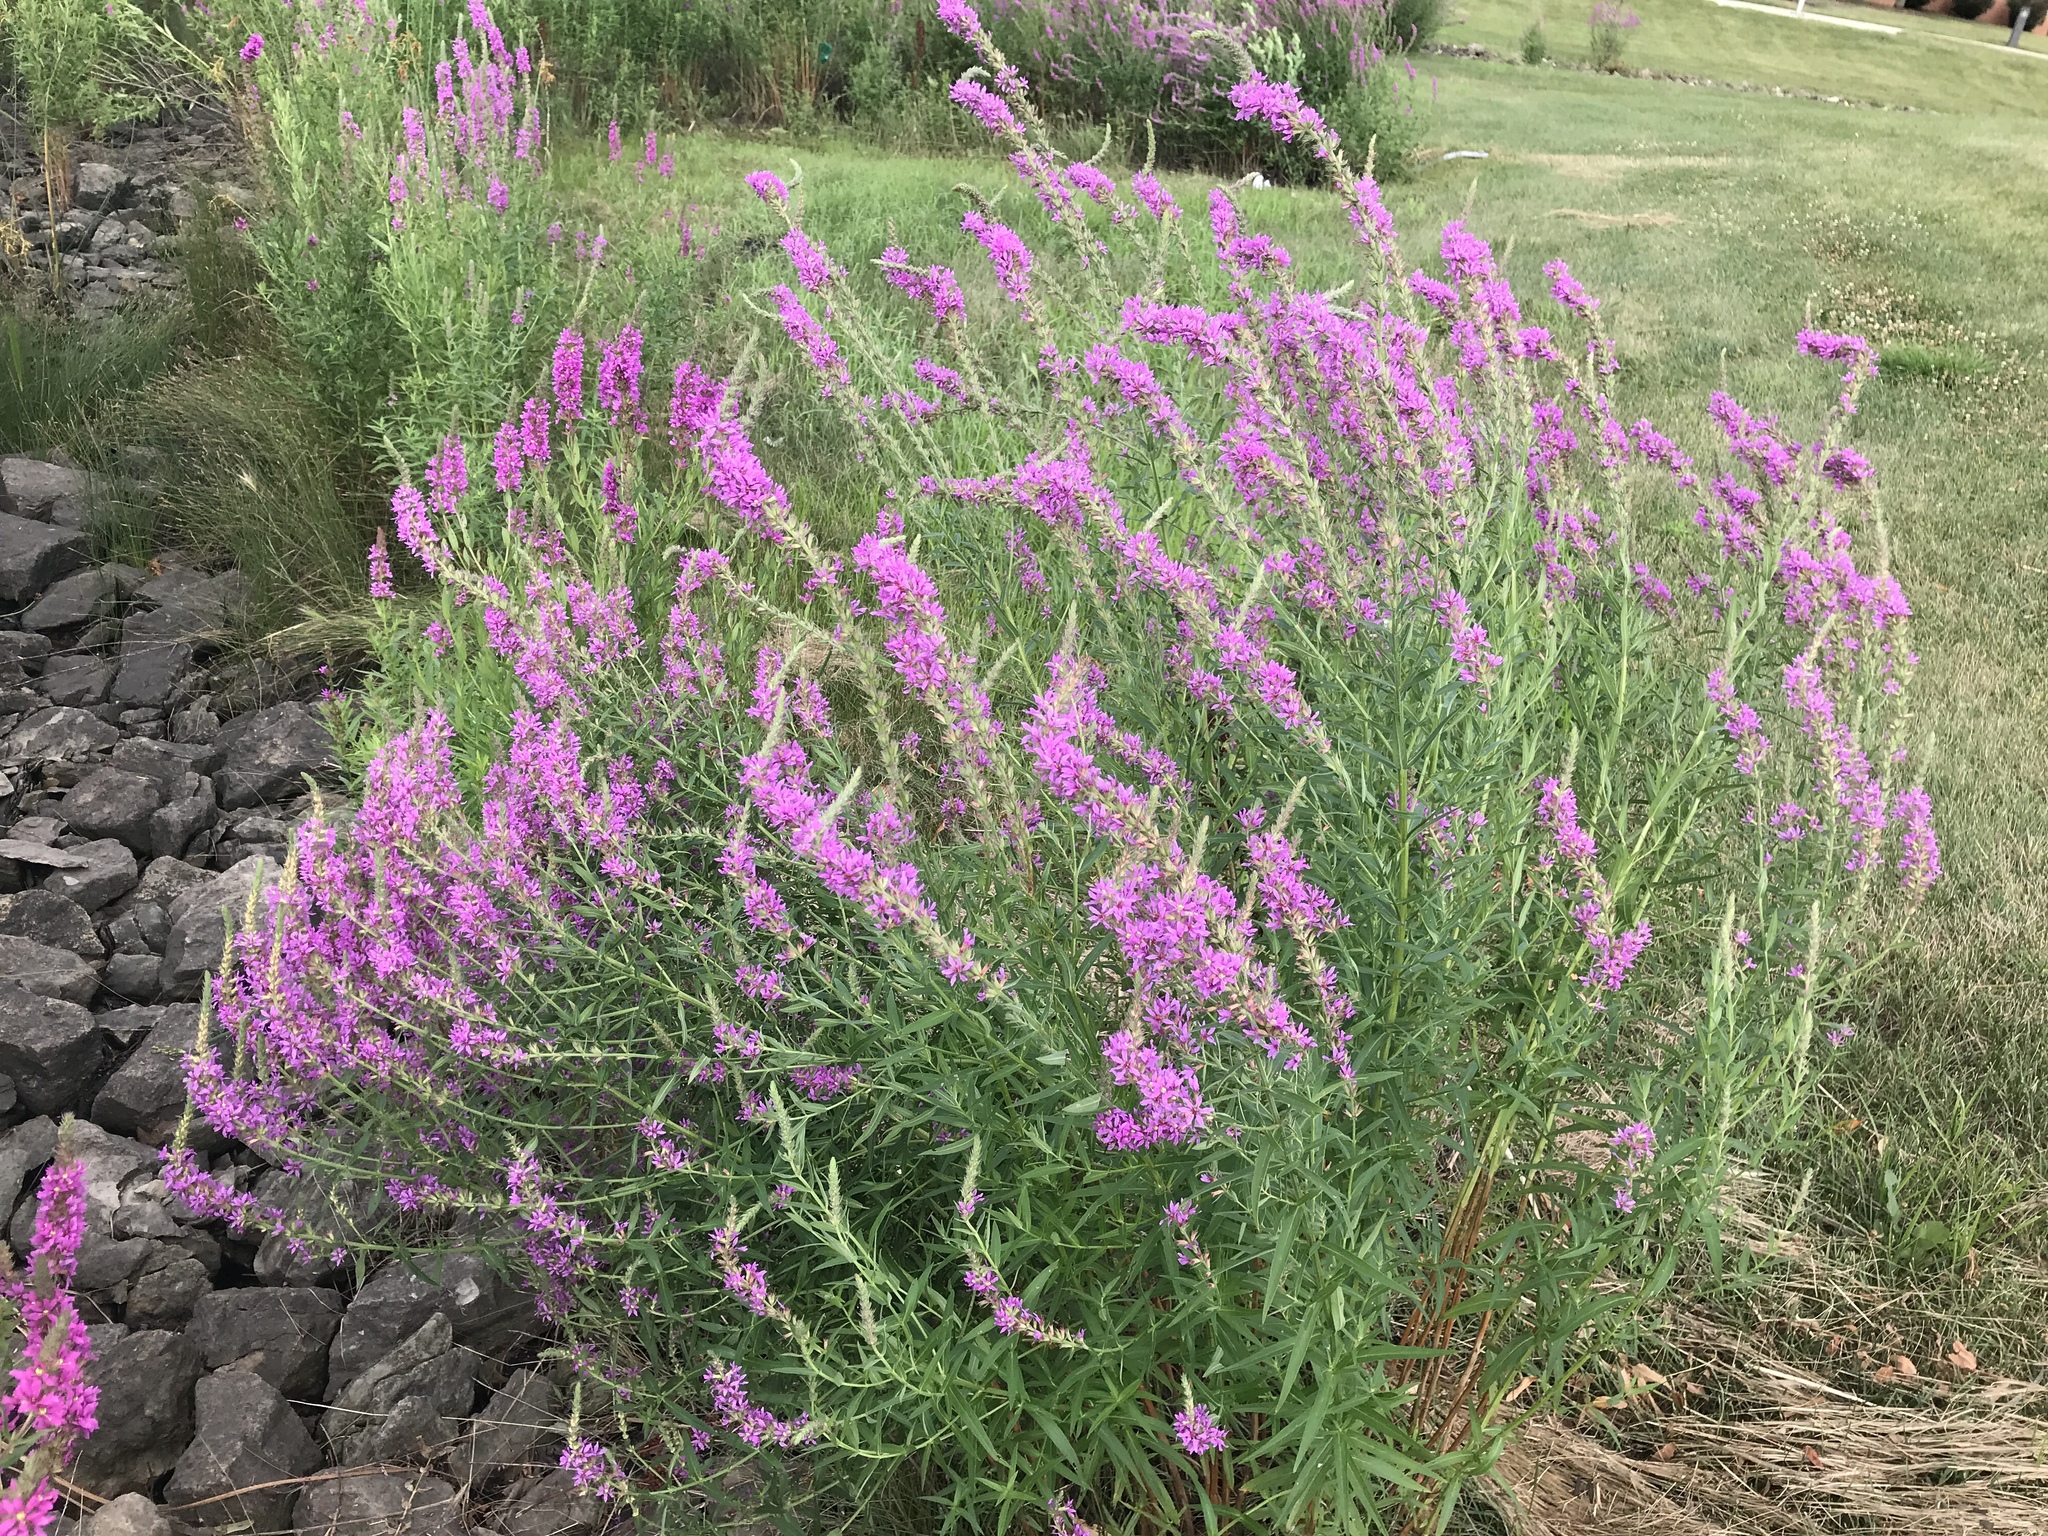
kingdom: Plantae
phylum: Tracheophyta
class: Magnoliopsida
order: Myrtales
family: Lythraceae
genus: Lythrum
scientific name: Lythrum salicaria
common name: Purple loosestrife
